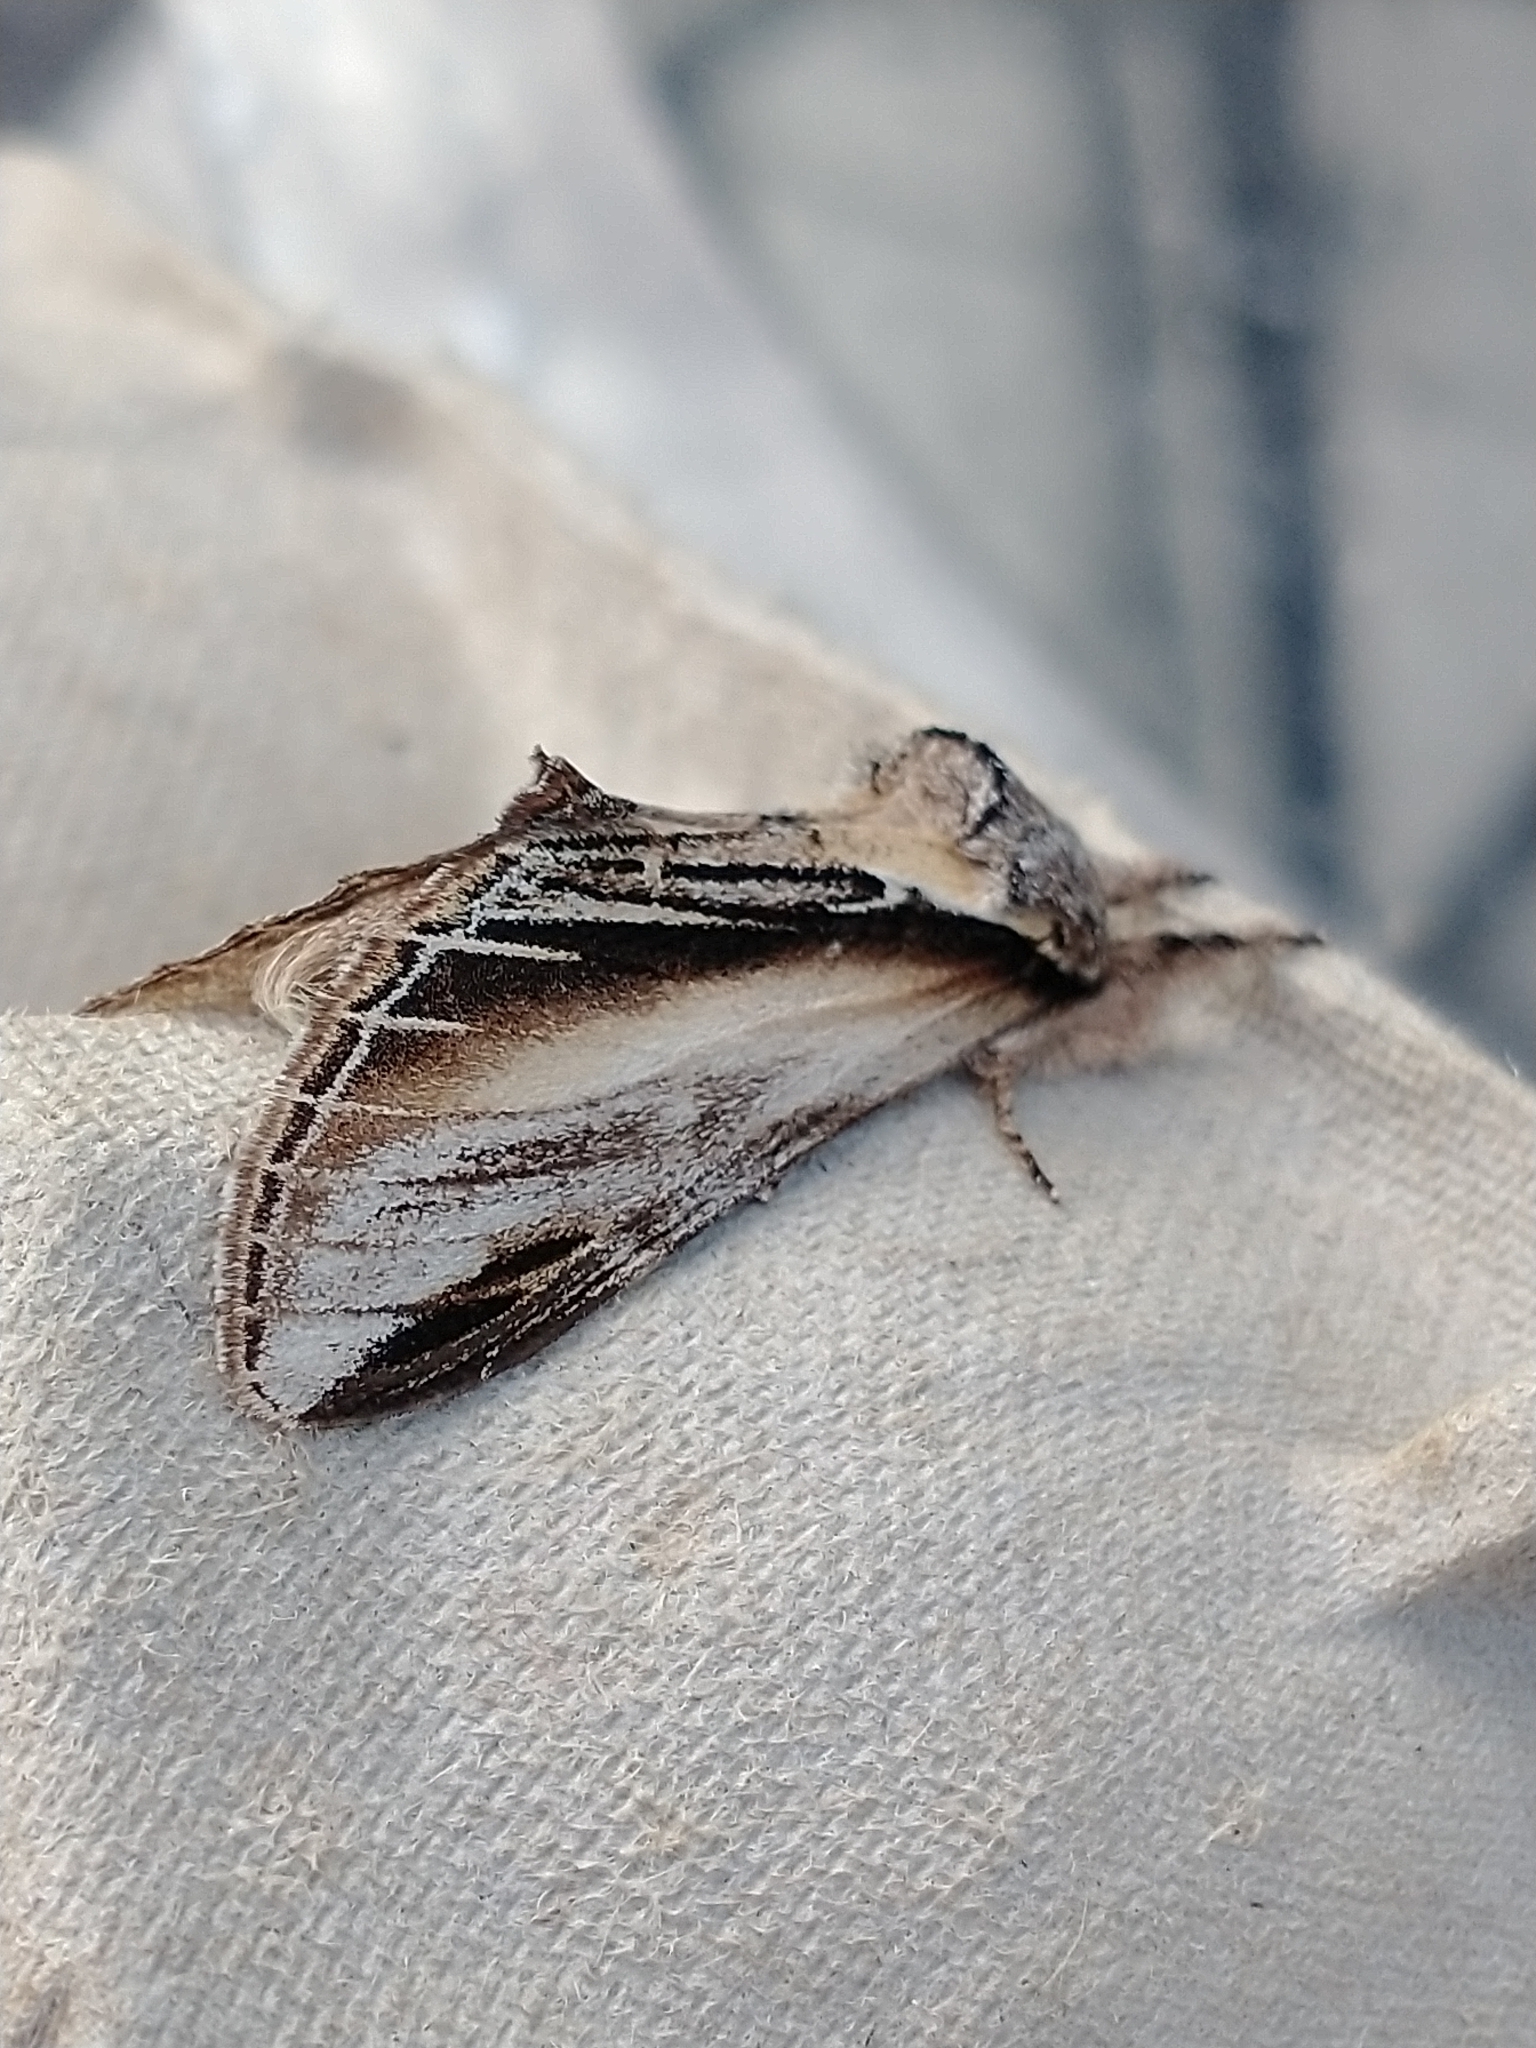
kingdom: Animalia
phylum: Arthropoda
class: Insecta
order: Lepidoptera
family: Notodontidae
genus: Pheosia
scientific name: Pheosia tremula
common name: Swallow prominent
